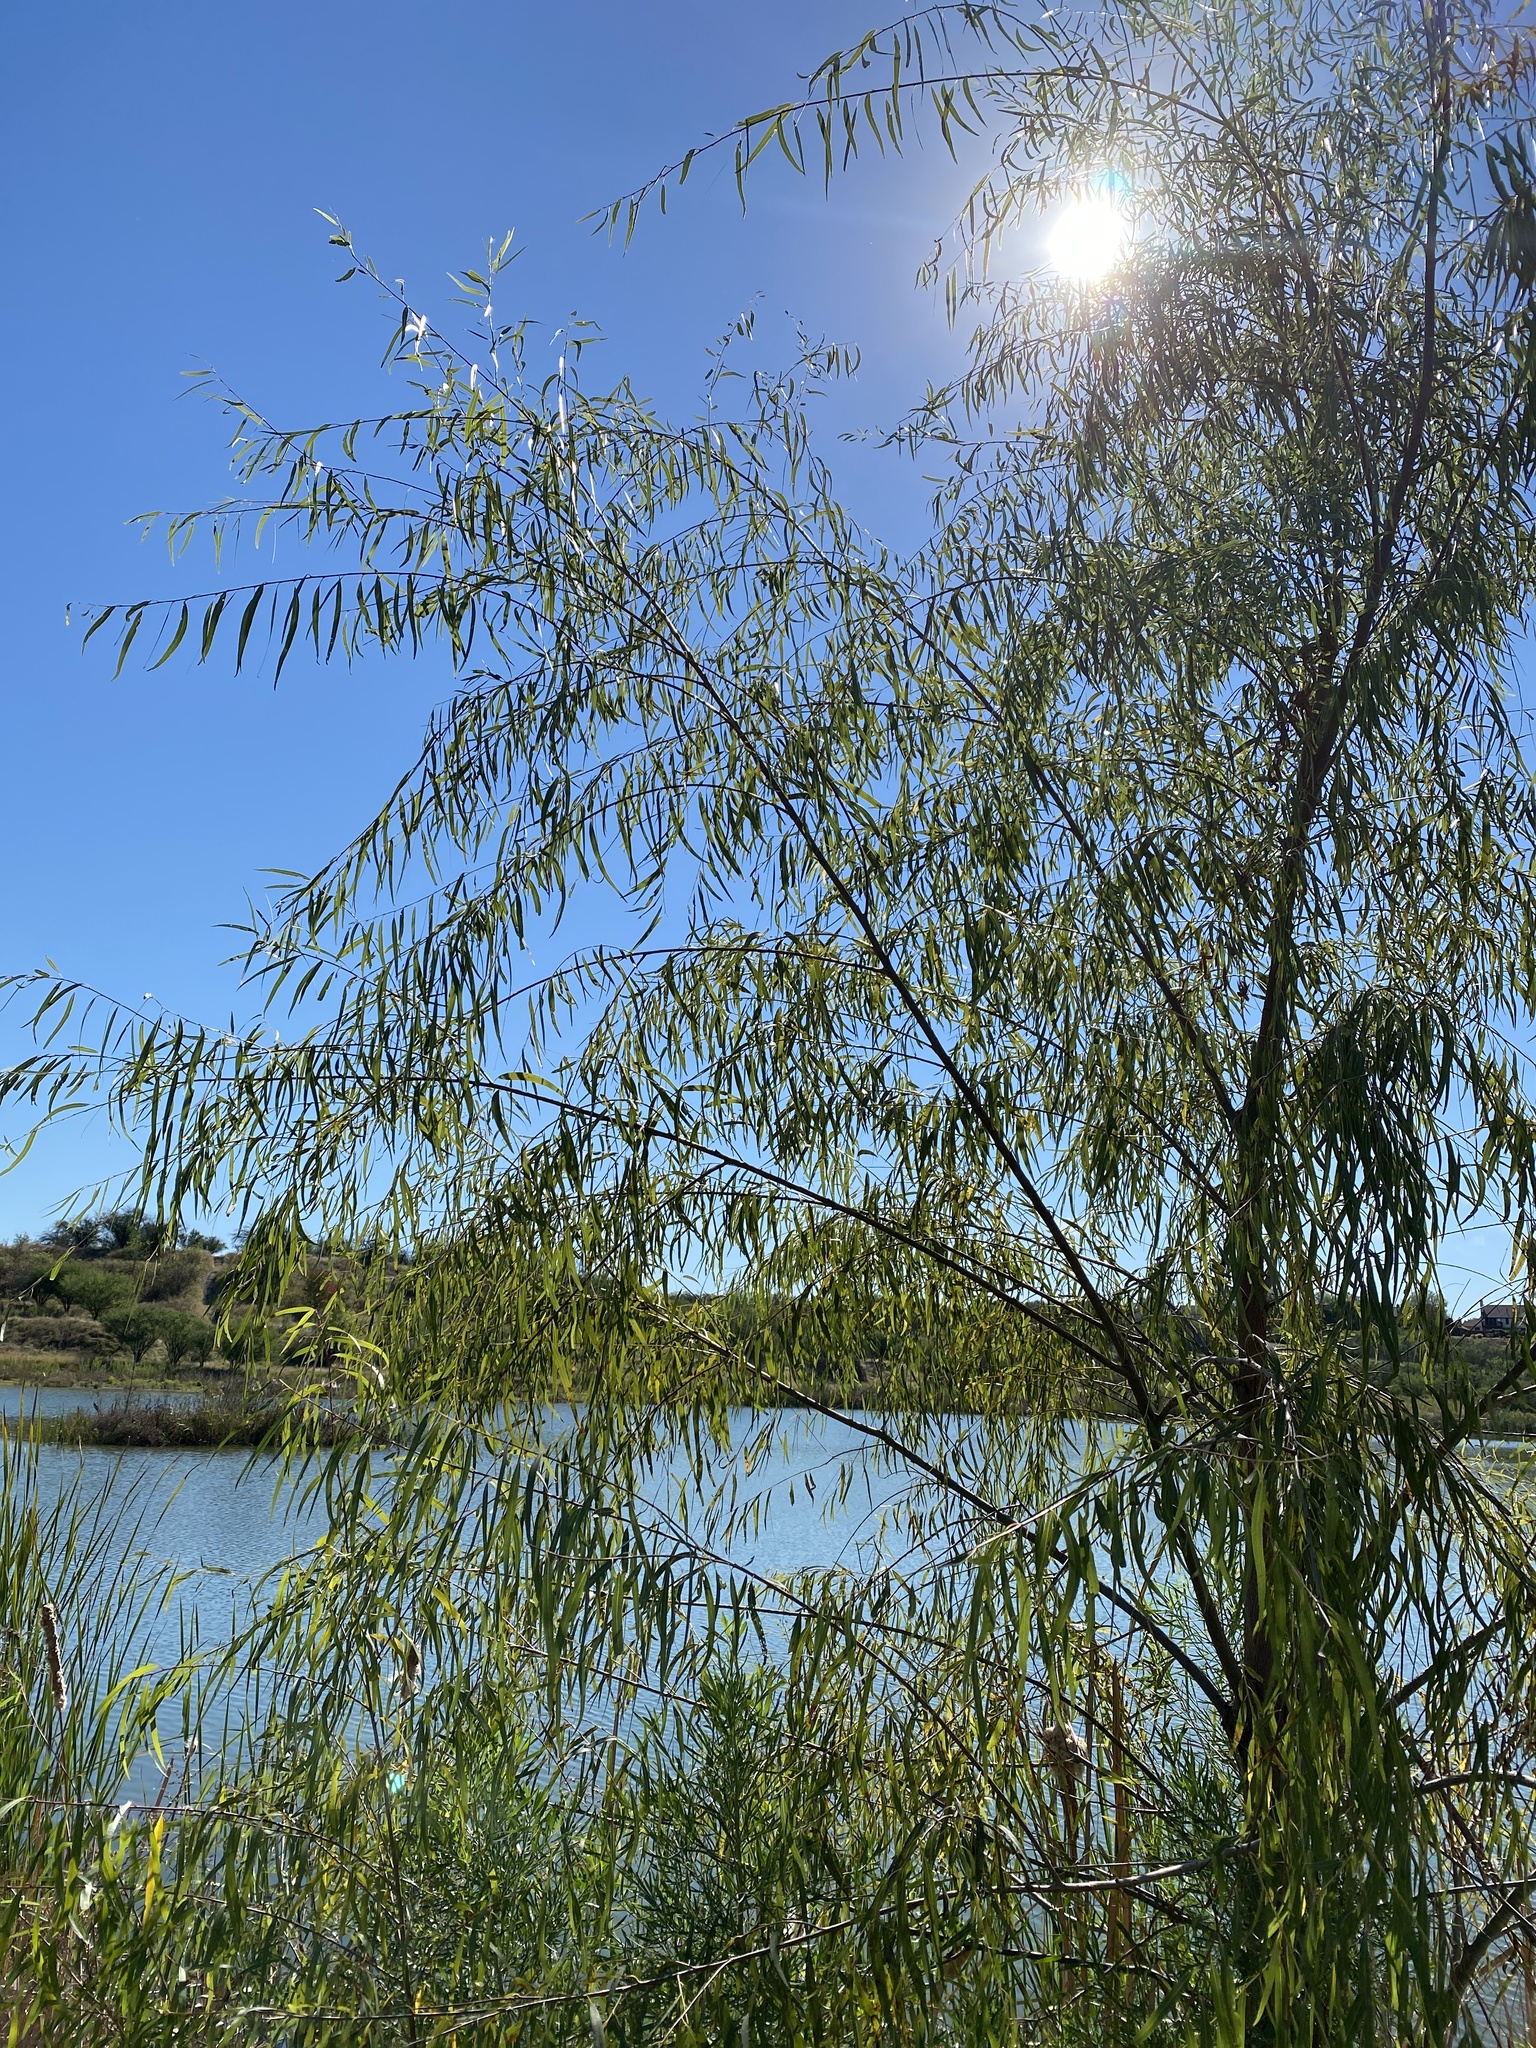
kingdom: Plantae
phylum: Tracheophyta
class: Magnoliopsida
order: Malpighiales
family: Salicaceae
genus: Salix
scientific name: Salix nigra
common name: Black willow
